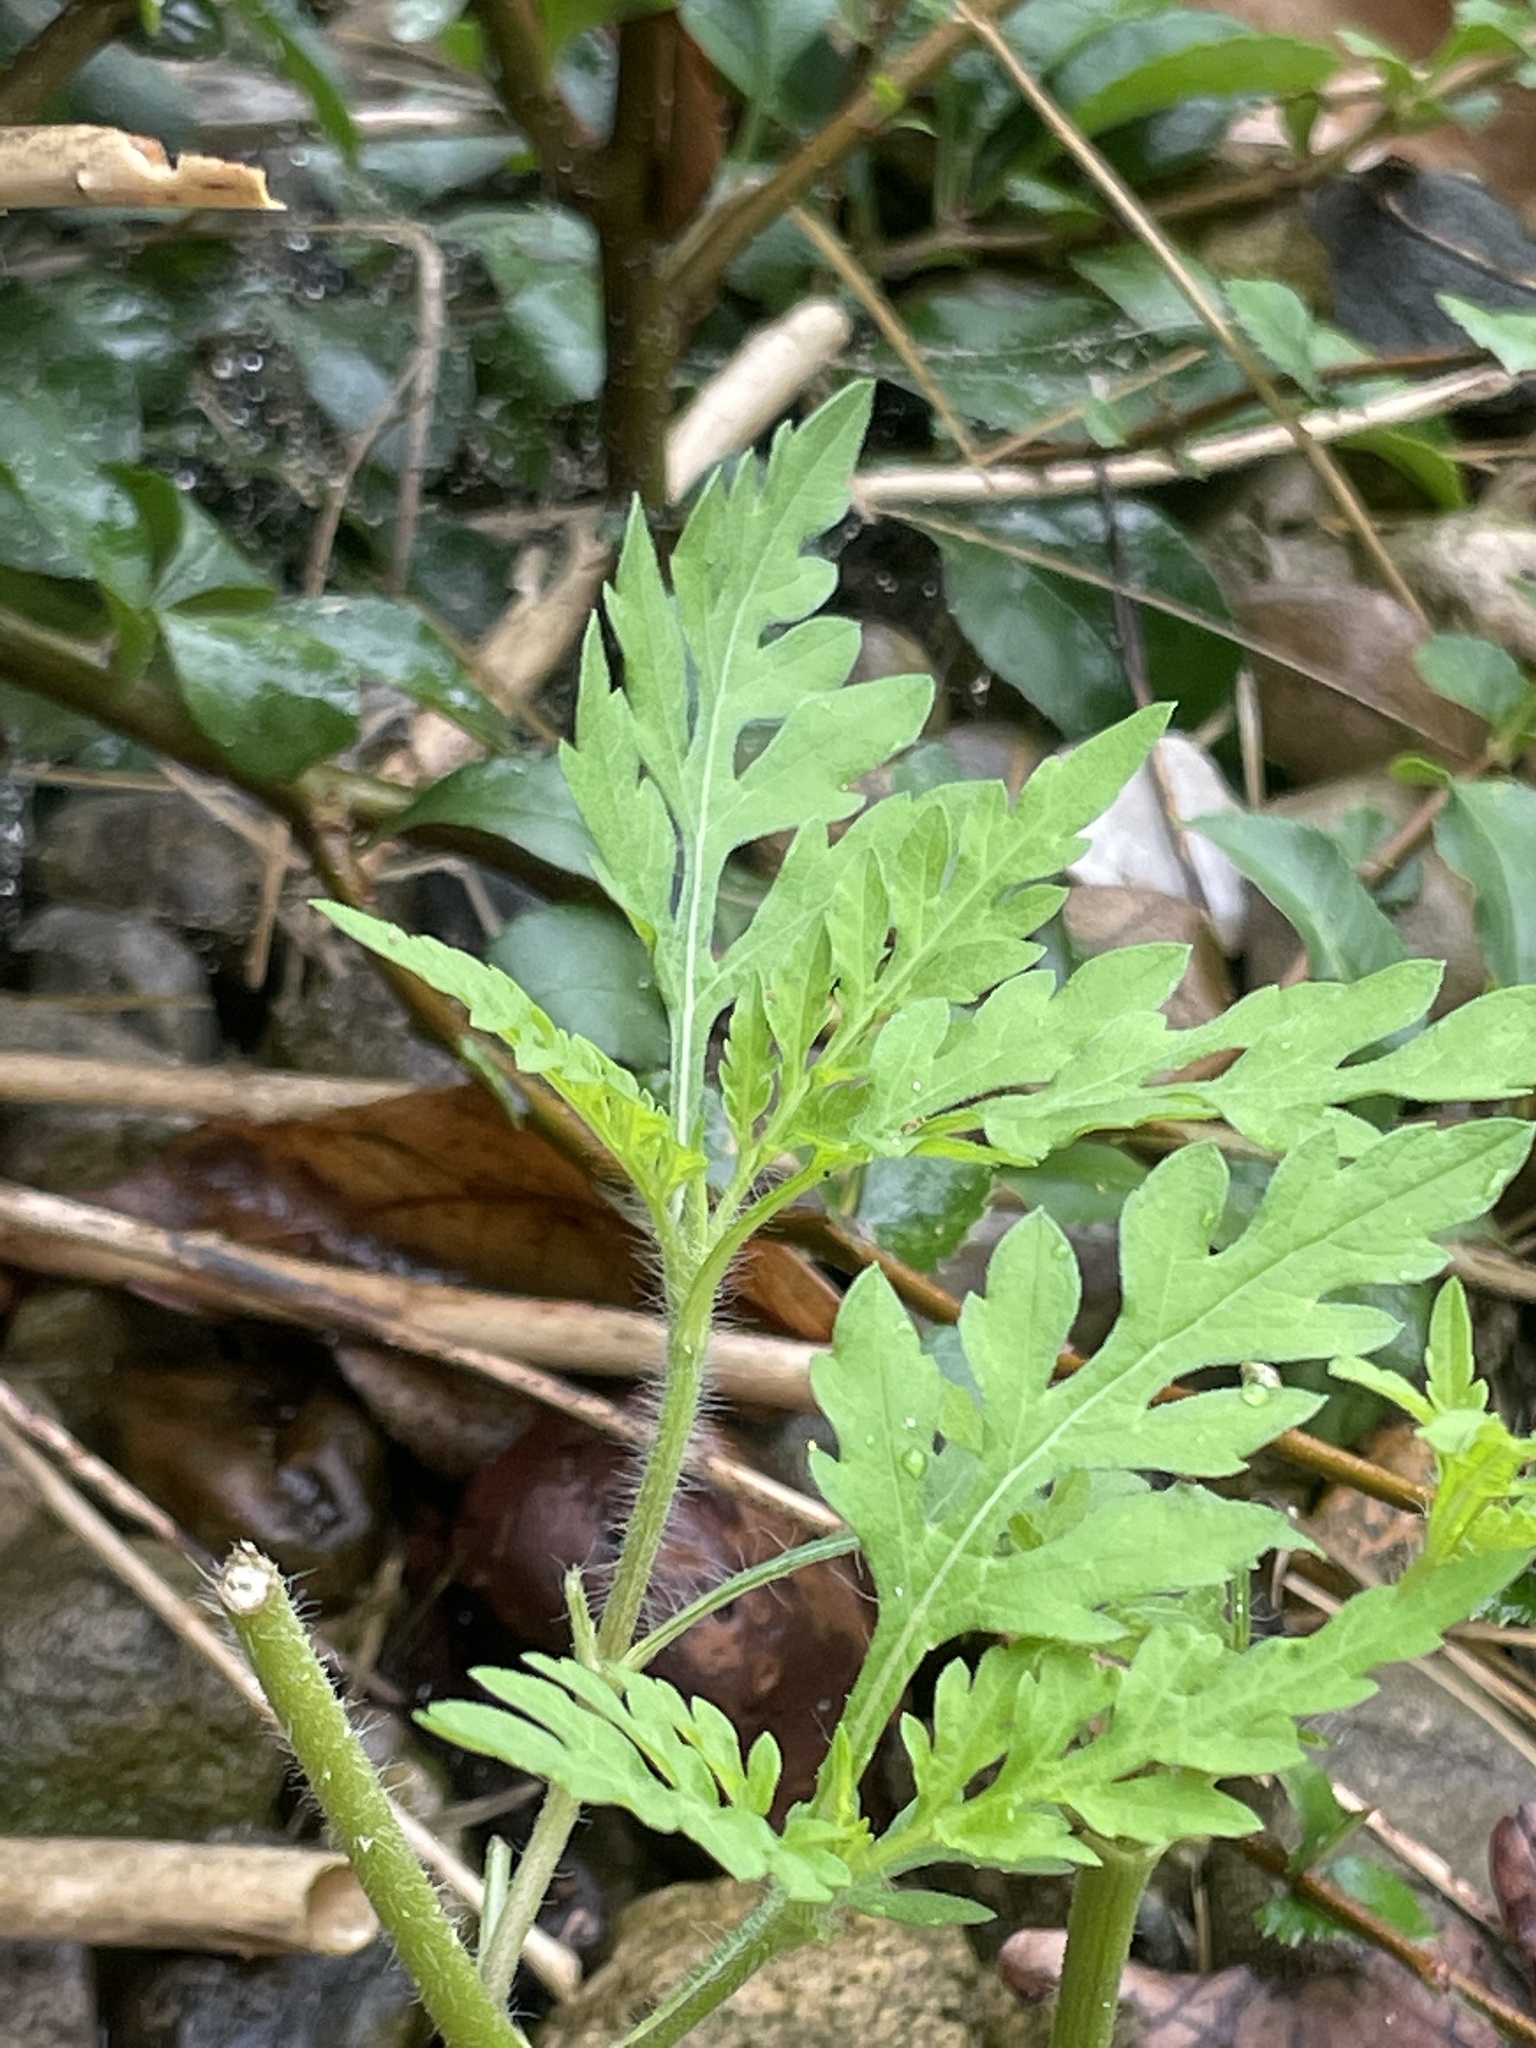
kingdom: Plantae
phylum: Tracheophyta
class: Magnoliopsida
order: Asterales
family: Asteraceae
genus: Ambrosia
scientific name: Ambrosia artemisiifolia
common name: Annual ragweed
